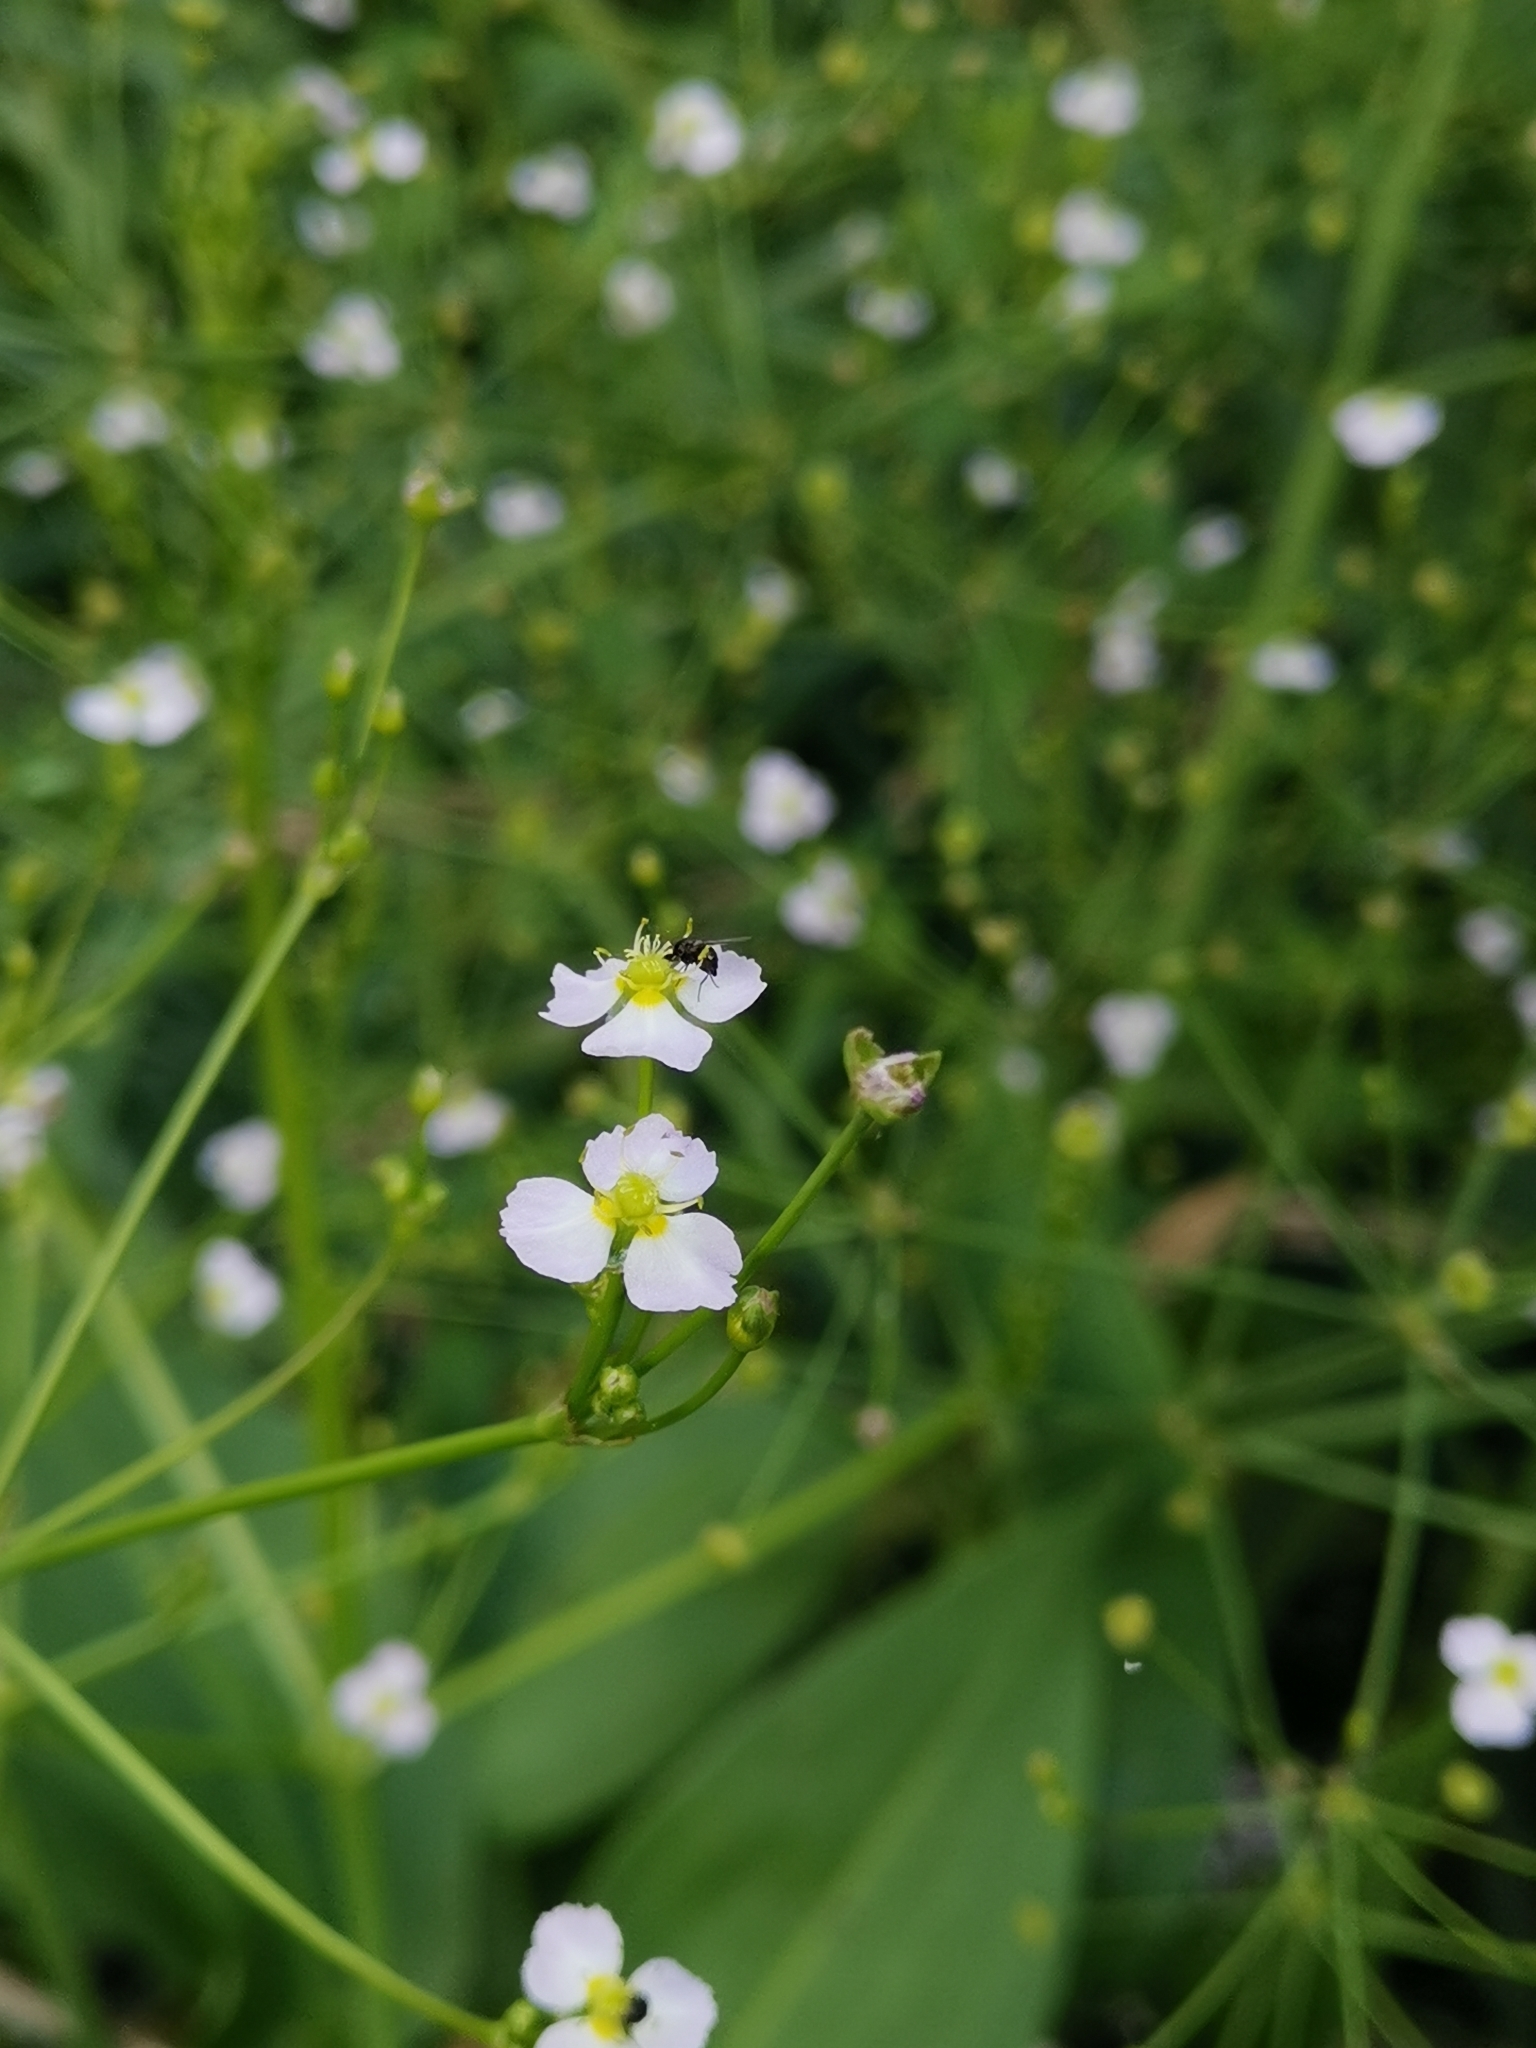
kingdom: Plantae
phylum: Tracheophyta
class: Liliopsida
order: Alismatales
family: Alismataceae
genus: Alisma
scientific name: Alisma plantago-aquatica
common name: Water-plantain
